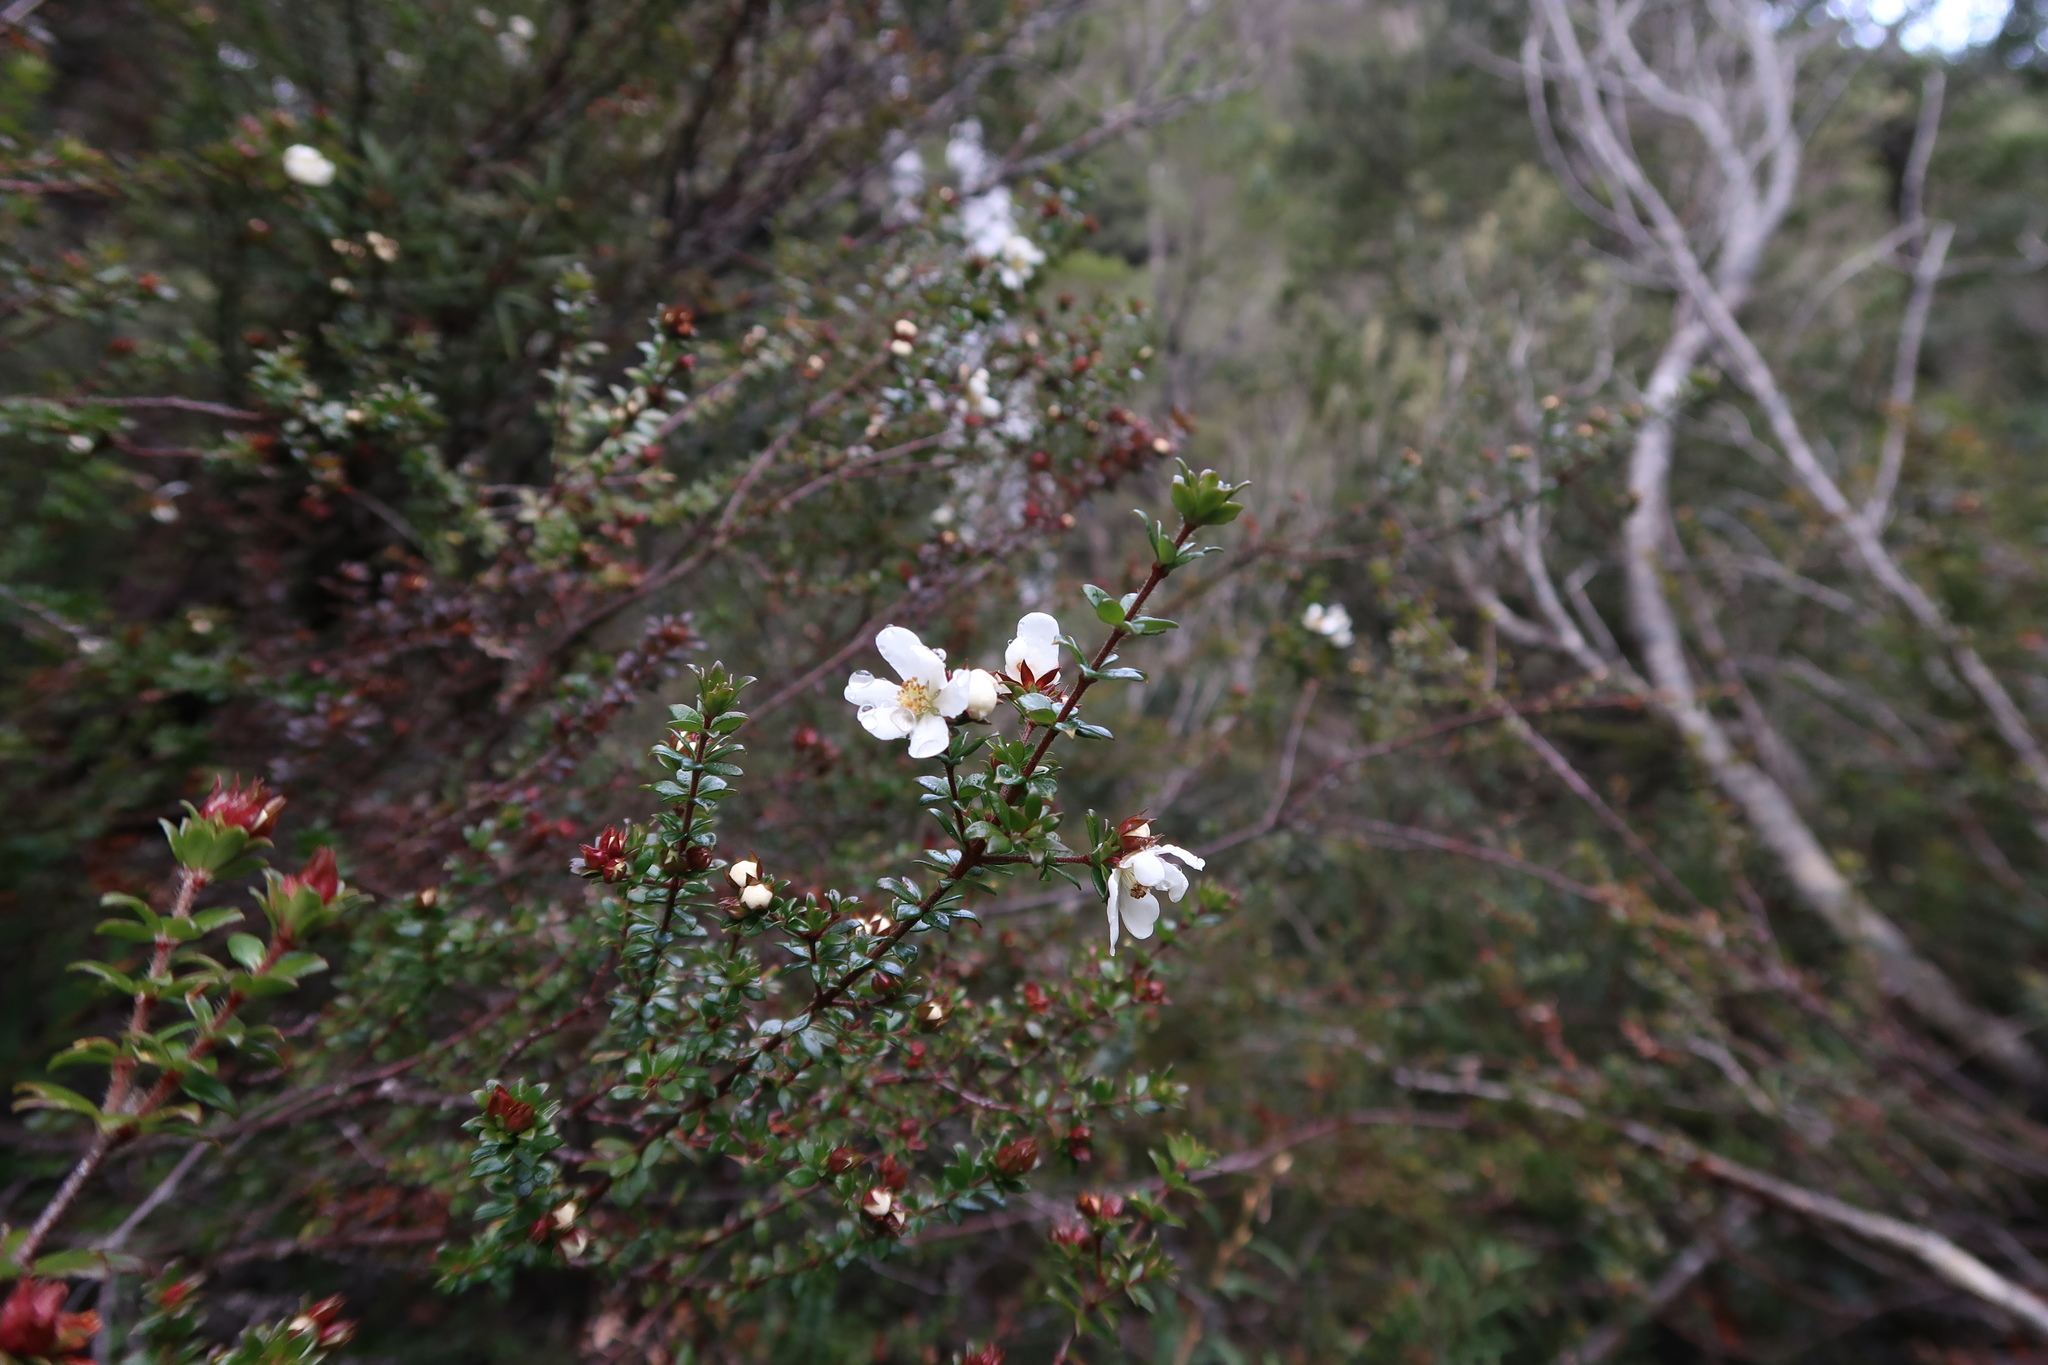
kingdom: Plantae
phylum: Tracheophyta
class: Magnoliopsida
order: Oxalidales
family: Cunoniaceae
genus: Bauera
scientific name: Bauera rubioides
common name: River-rose
